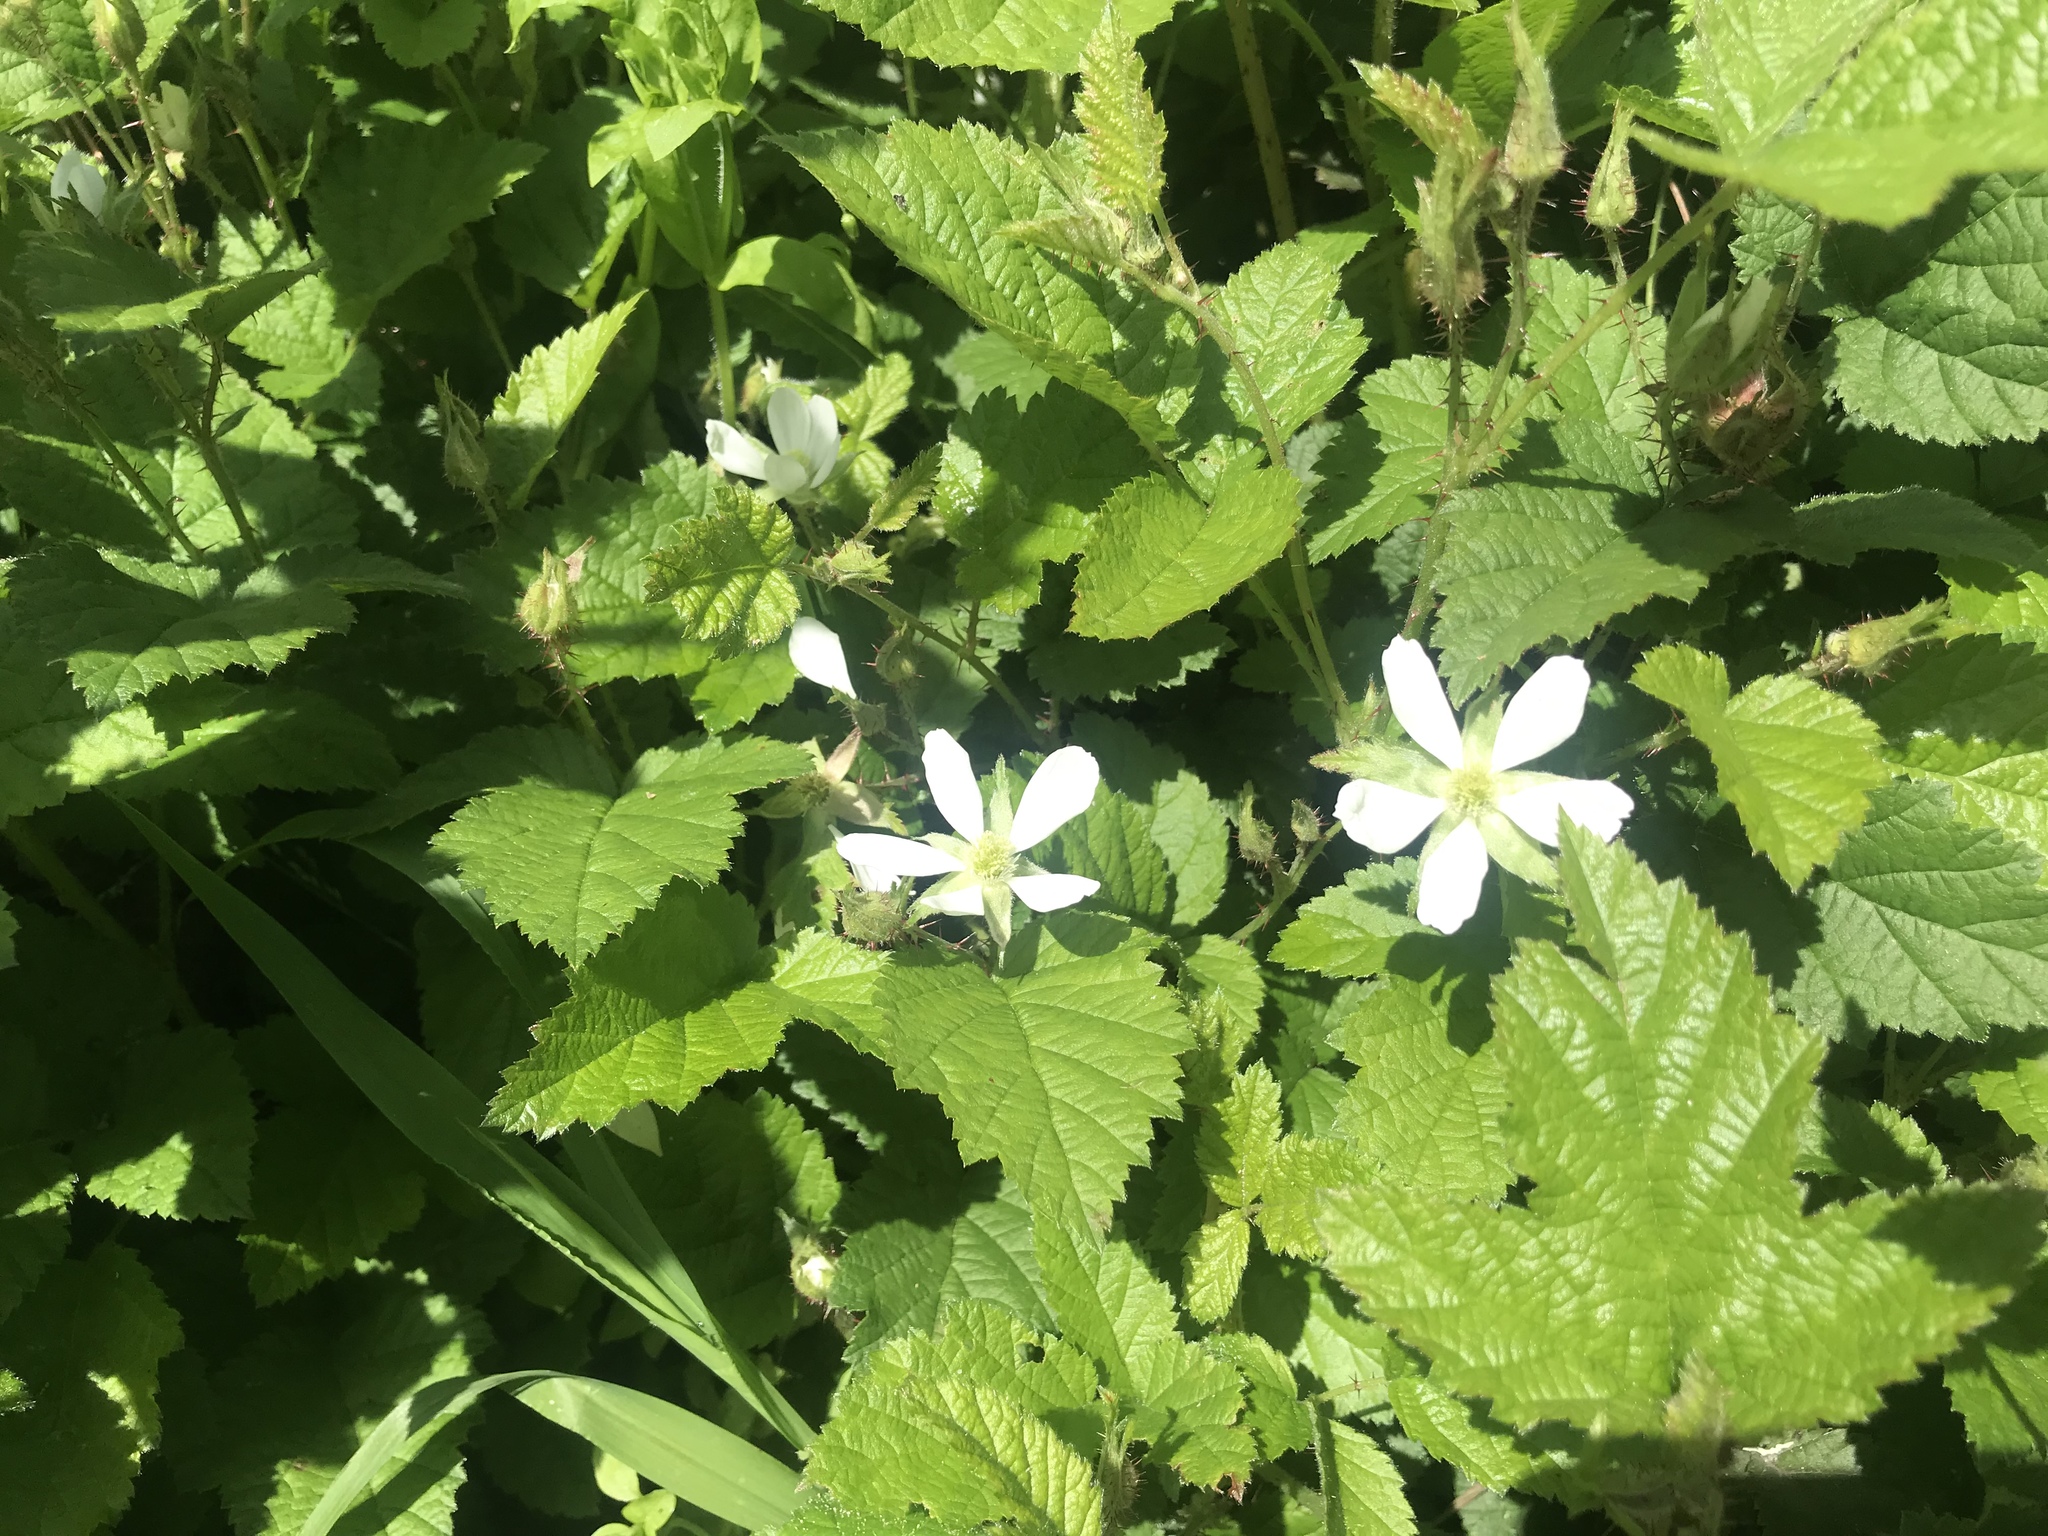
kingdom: Plantae
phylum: Tracheophyta
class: Magnoliopsida
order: Rosales
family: Rosaceae
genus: Rubus
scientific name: Rubus ursinus
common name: Pacific blackberry
